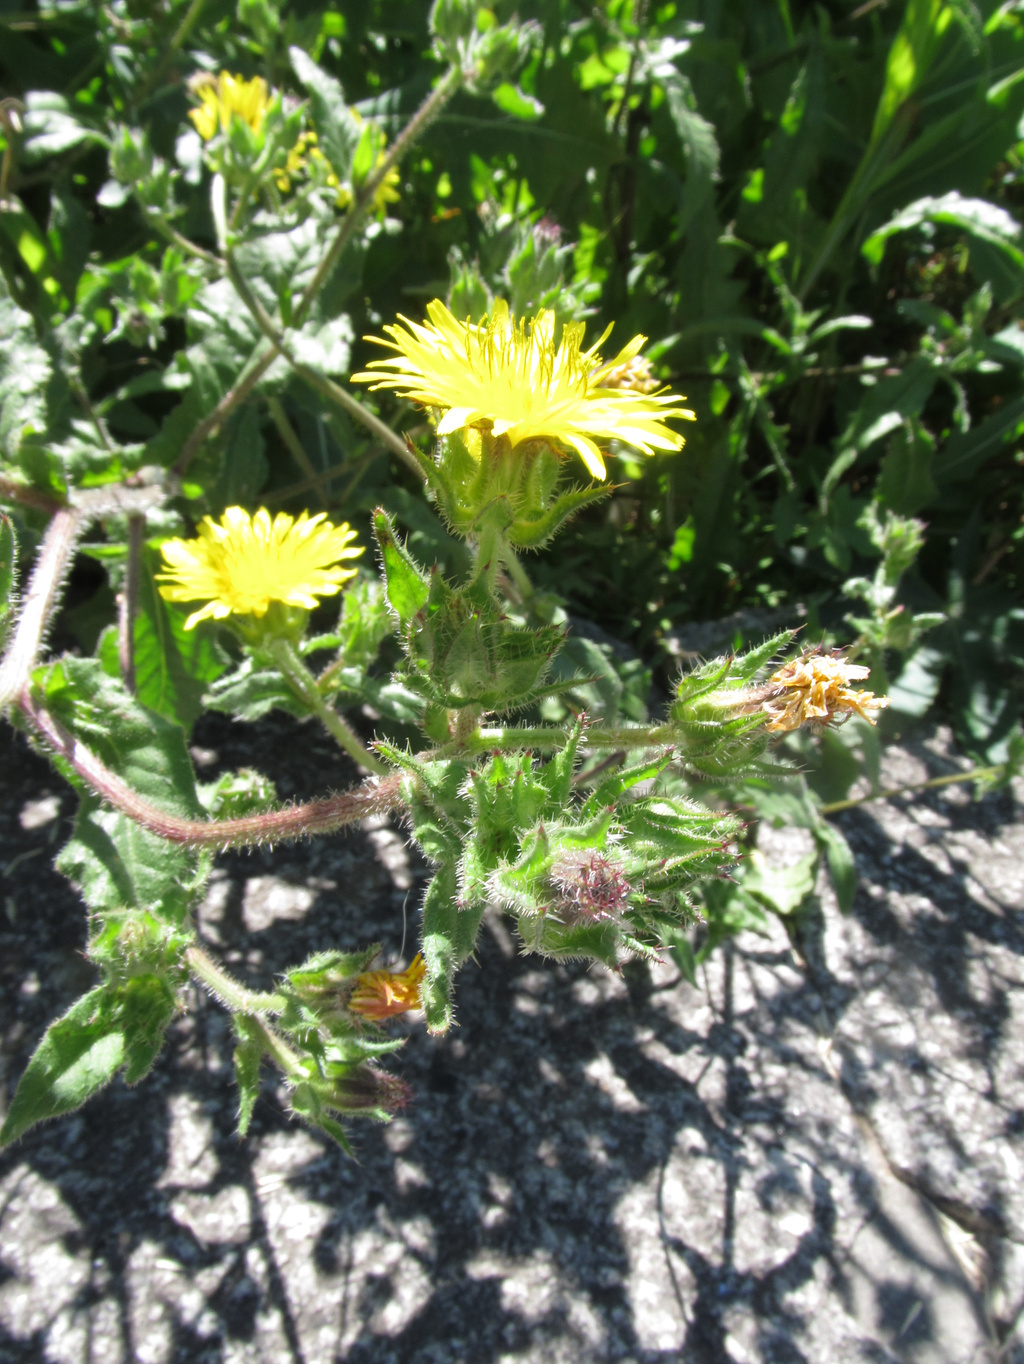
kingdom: Plantae
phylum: Tracheophyta
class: Magnoliopsida
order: Asterales
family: Asteraceae
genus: Helminthotheca
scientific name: Helminthotheca echioides
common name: Ox-tongue
